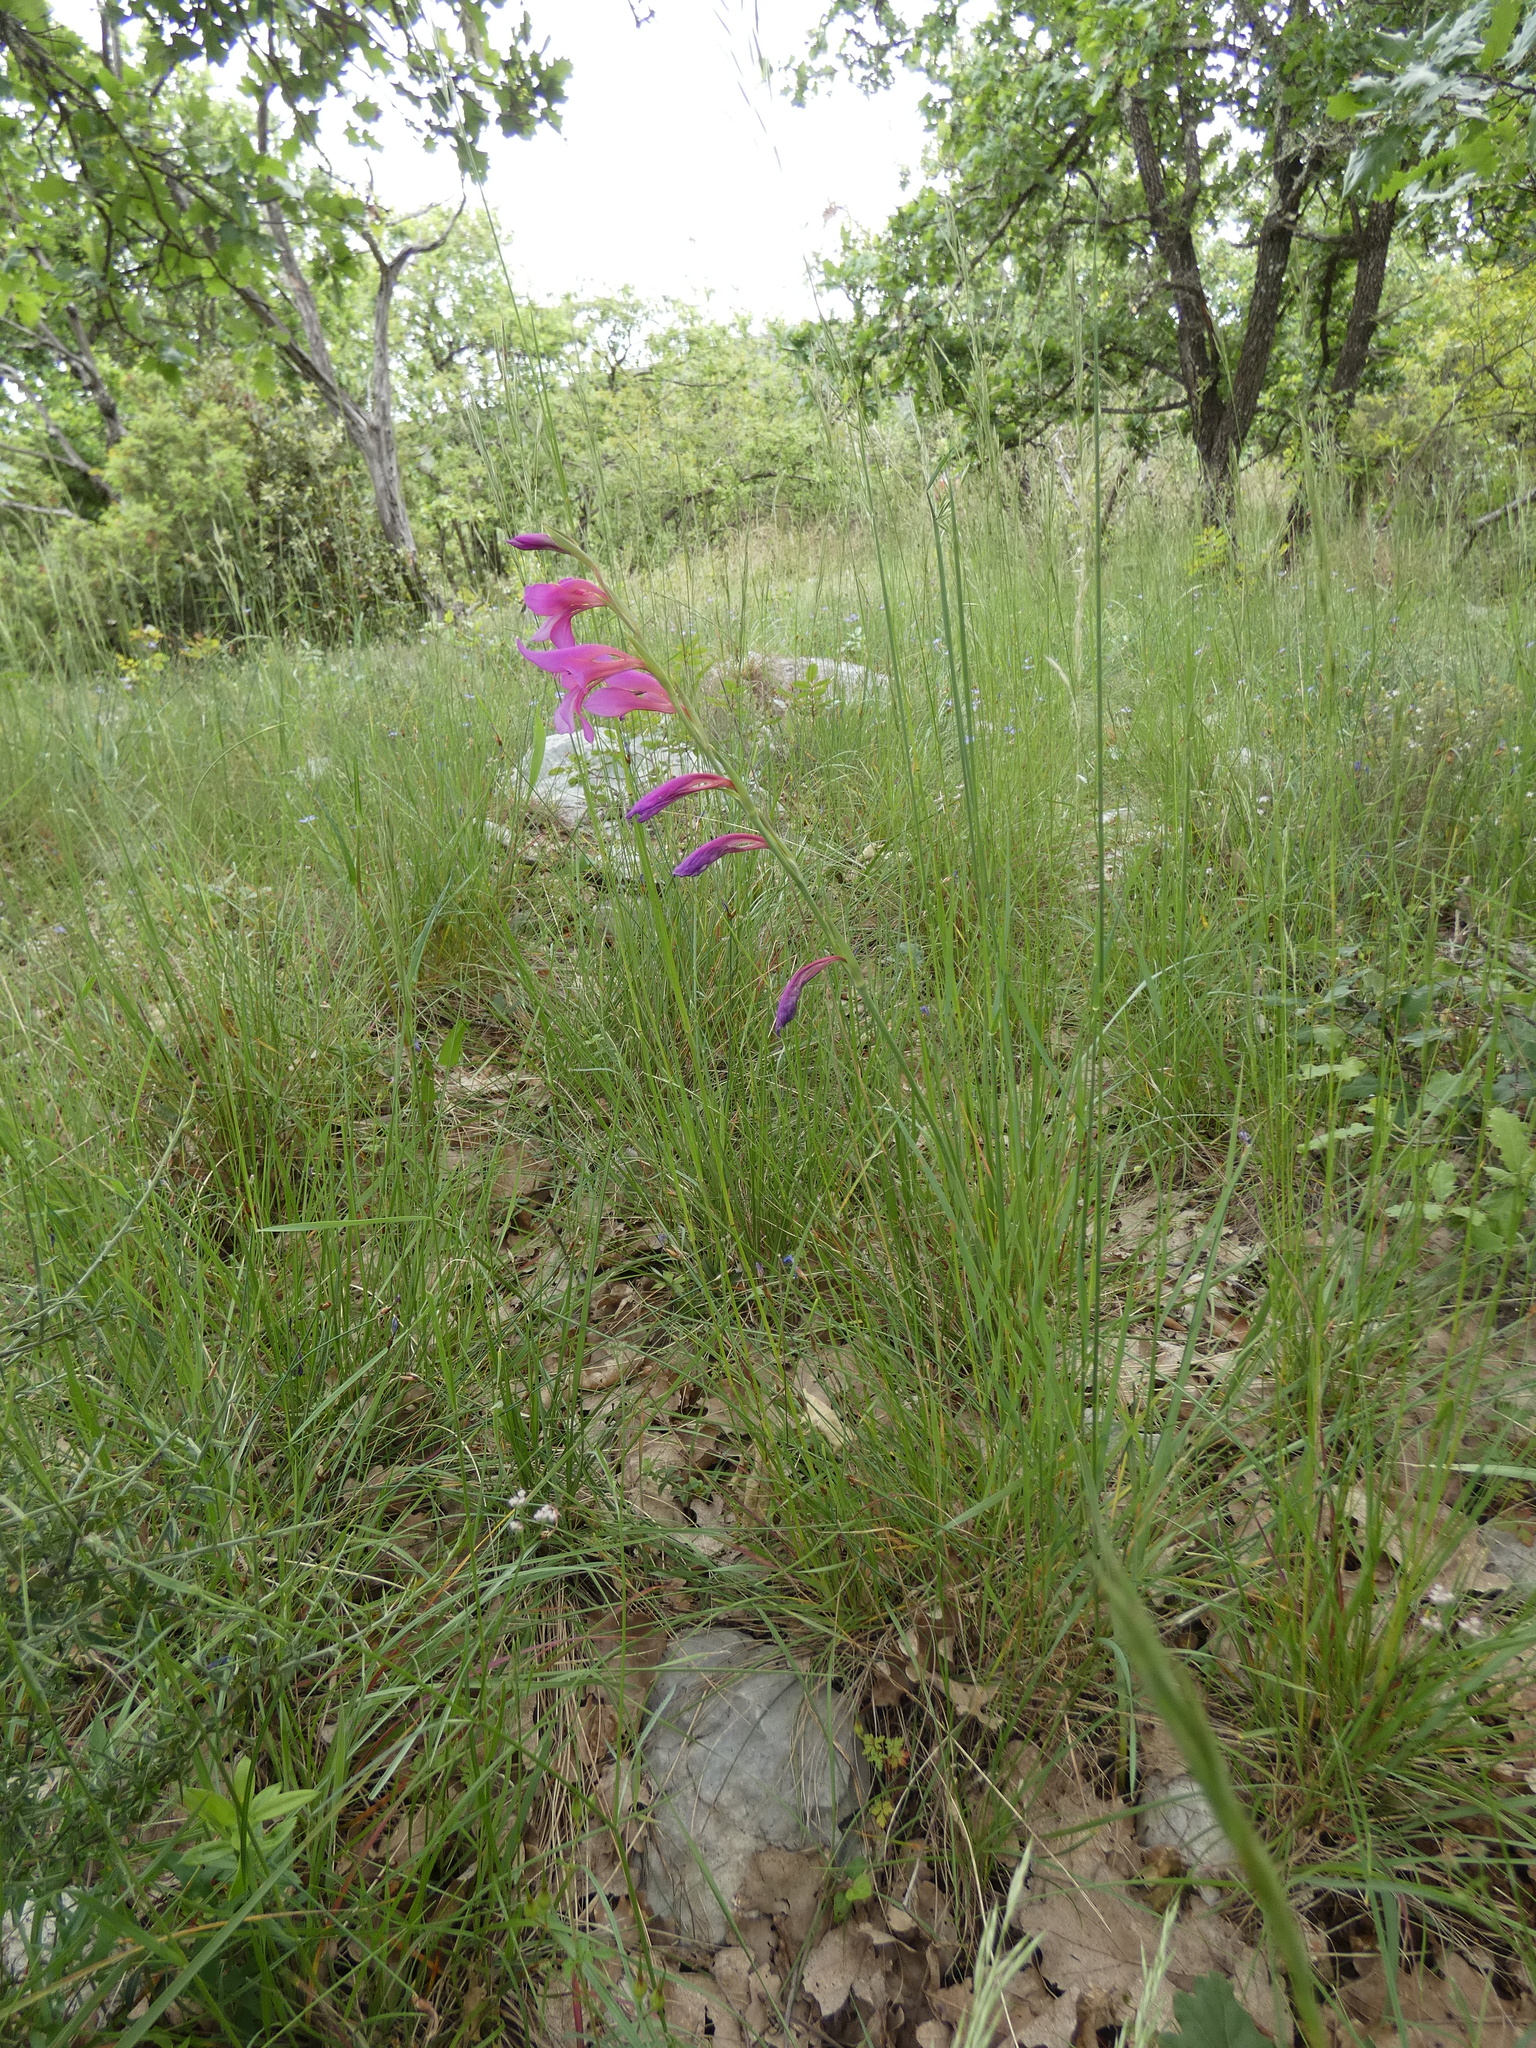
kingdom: Plantae
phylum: Tracheophyta
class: Liliopsida
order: Asparagales
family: Iridaceae
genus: Gladiolus
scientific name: Gladiolus dubius
